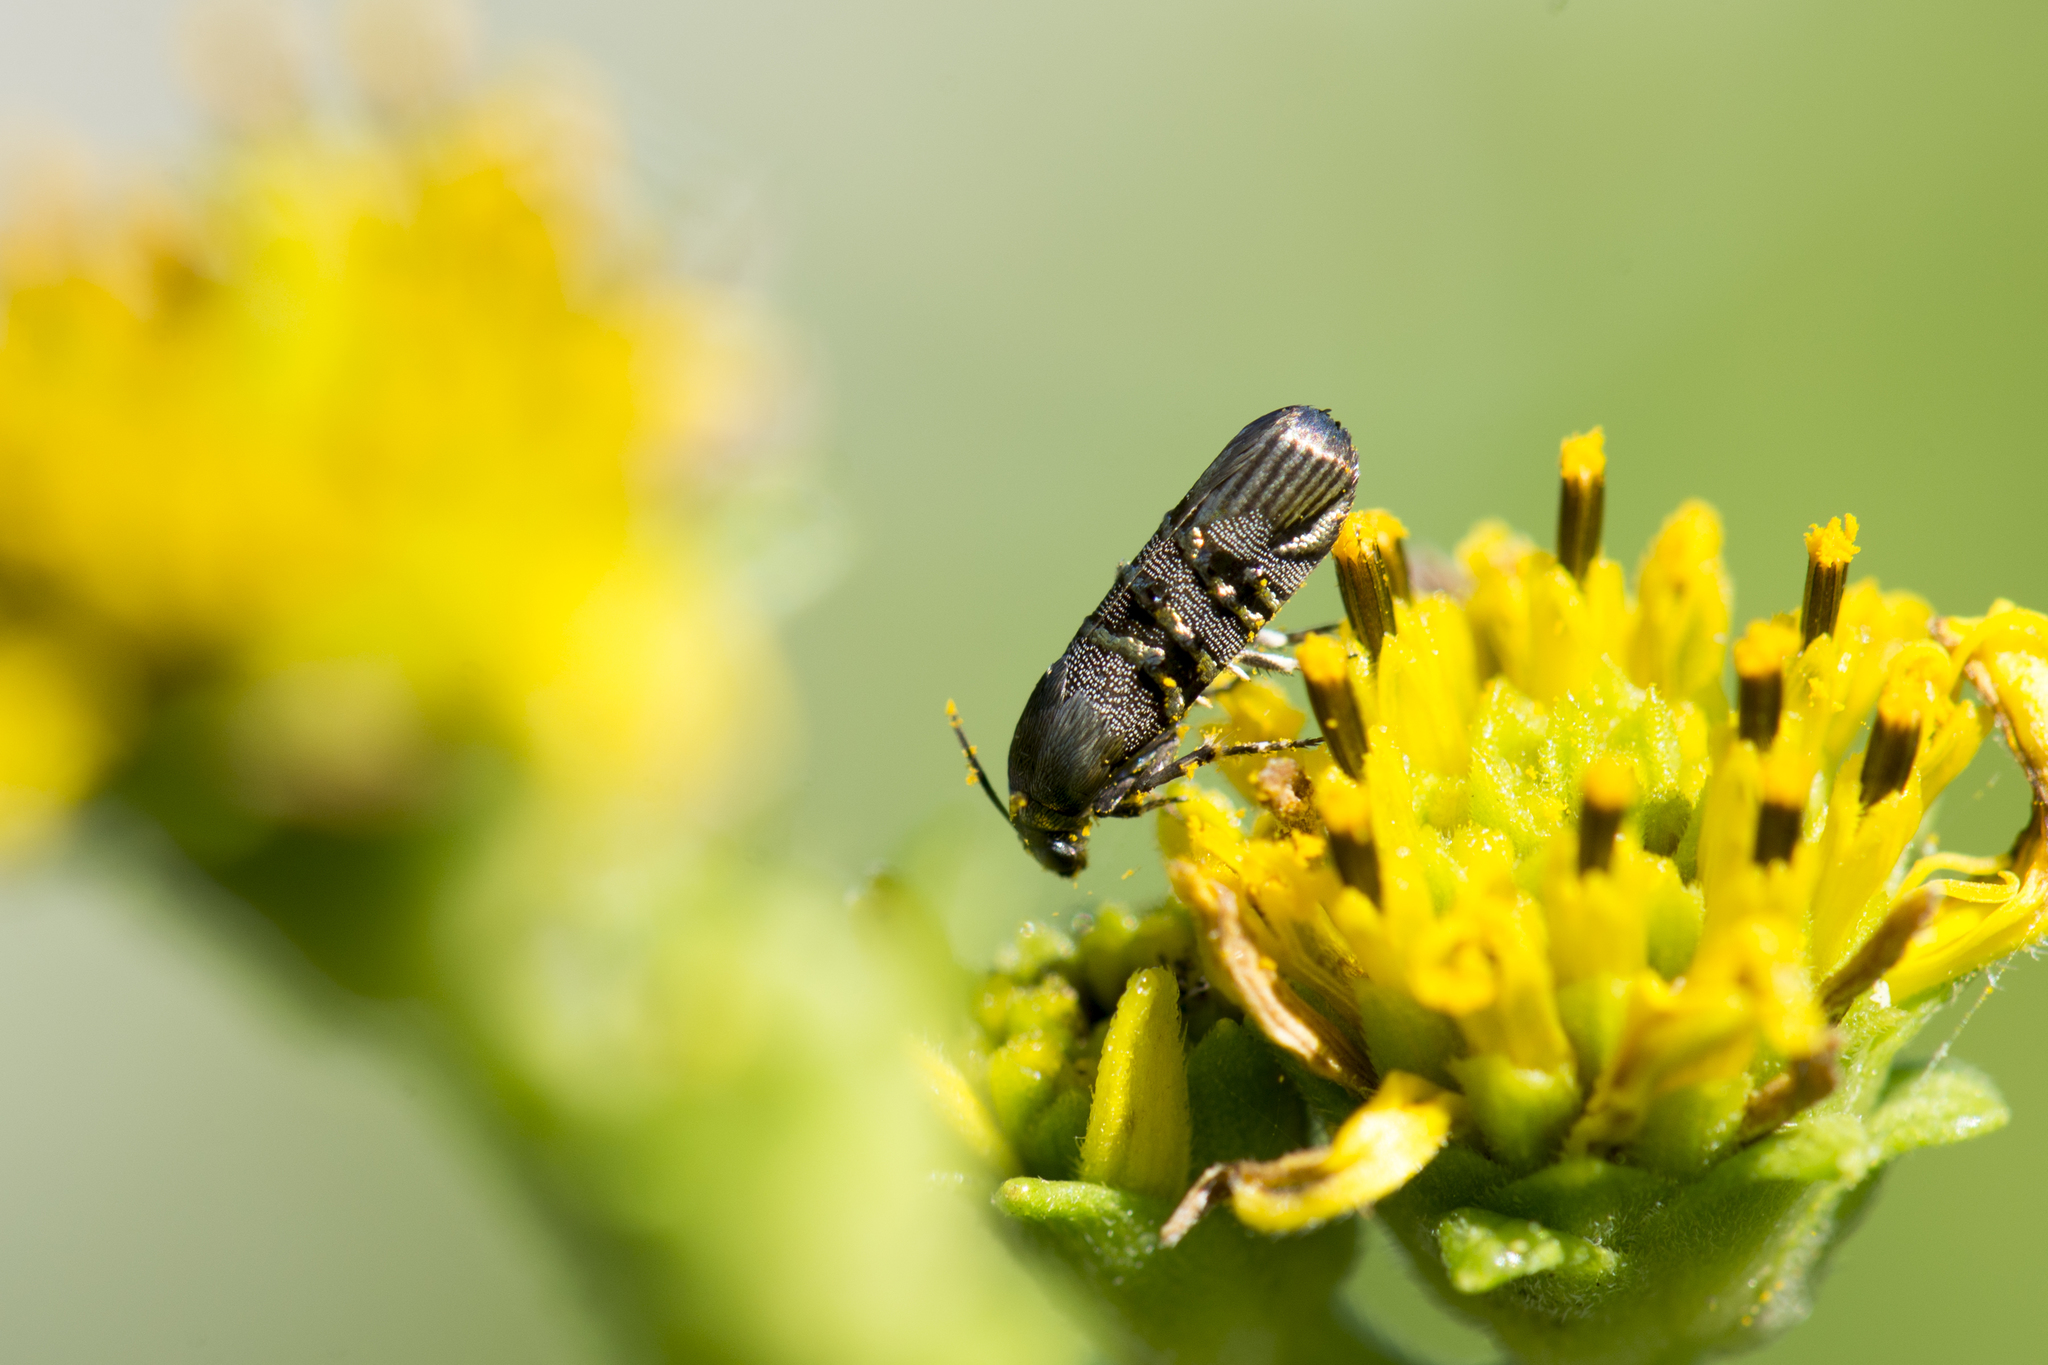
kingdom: Animalia
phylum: Arthropoda
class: Insecta
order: Lepidoptera
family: Brachodidae
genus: Phycodes
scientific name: Phycodes limata
